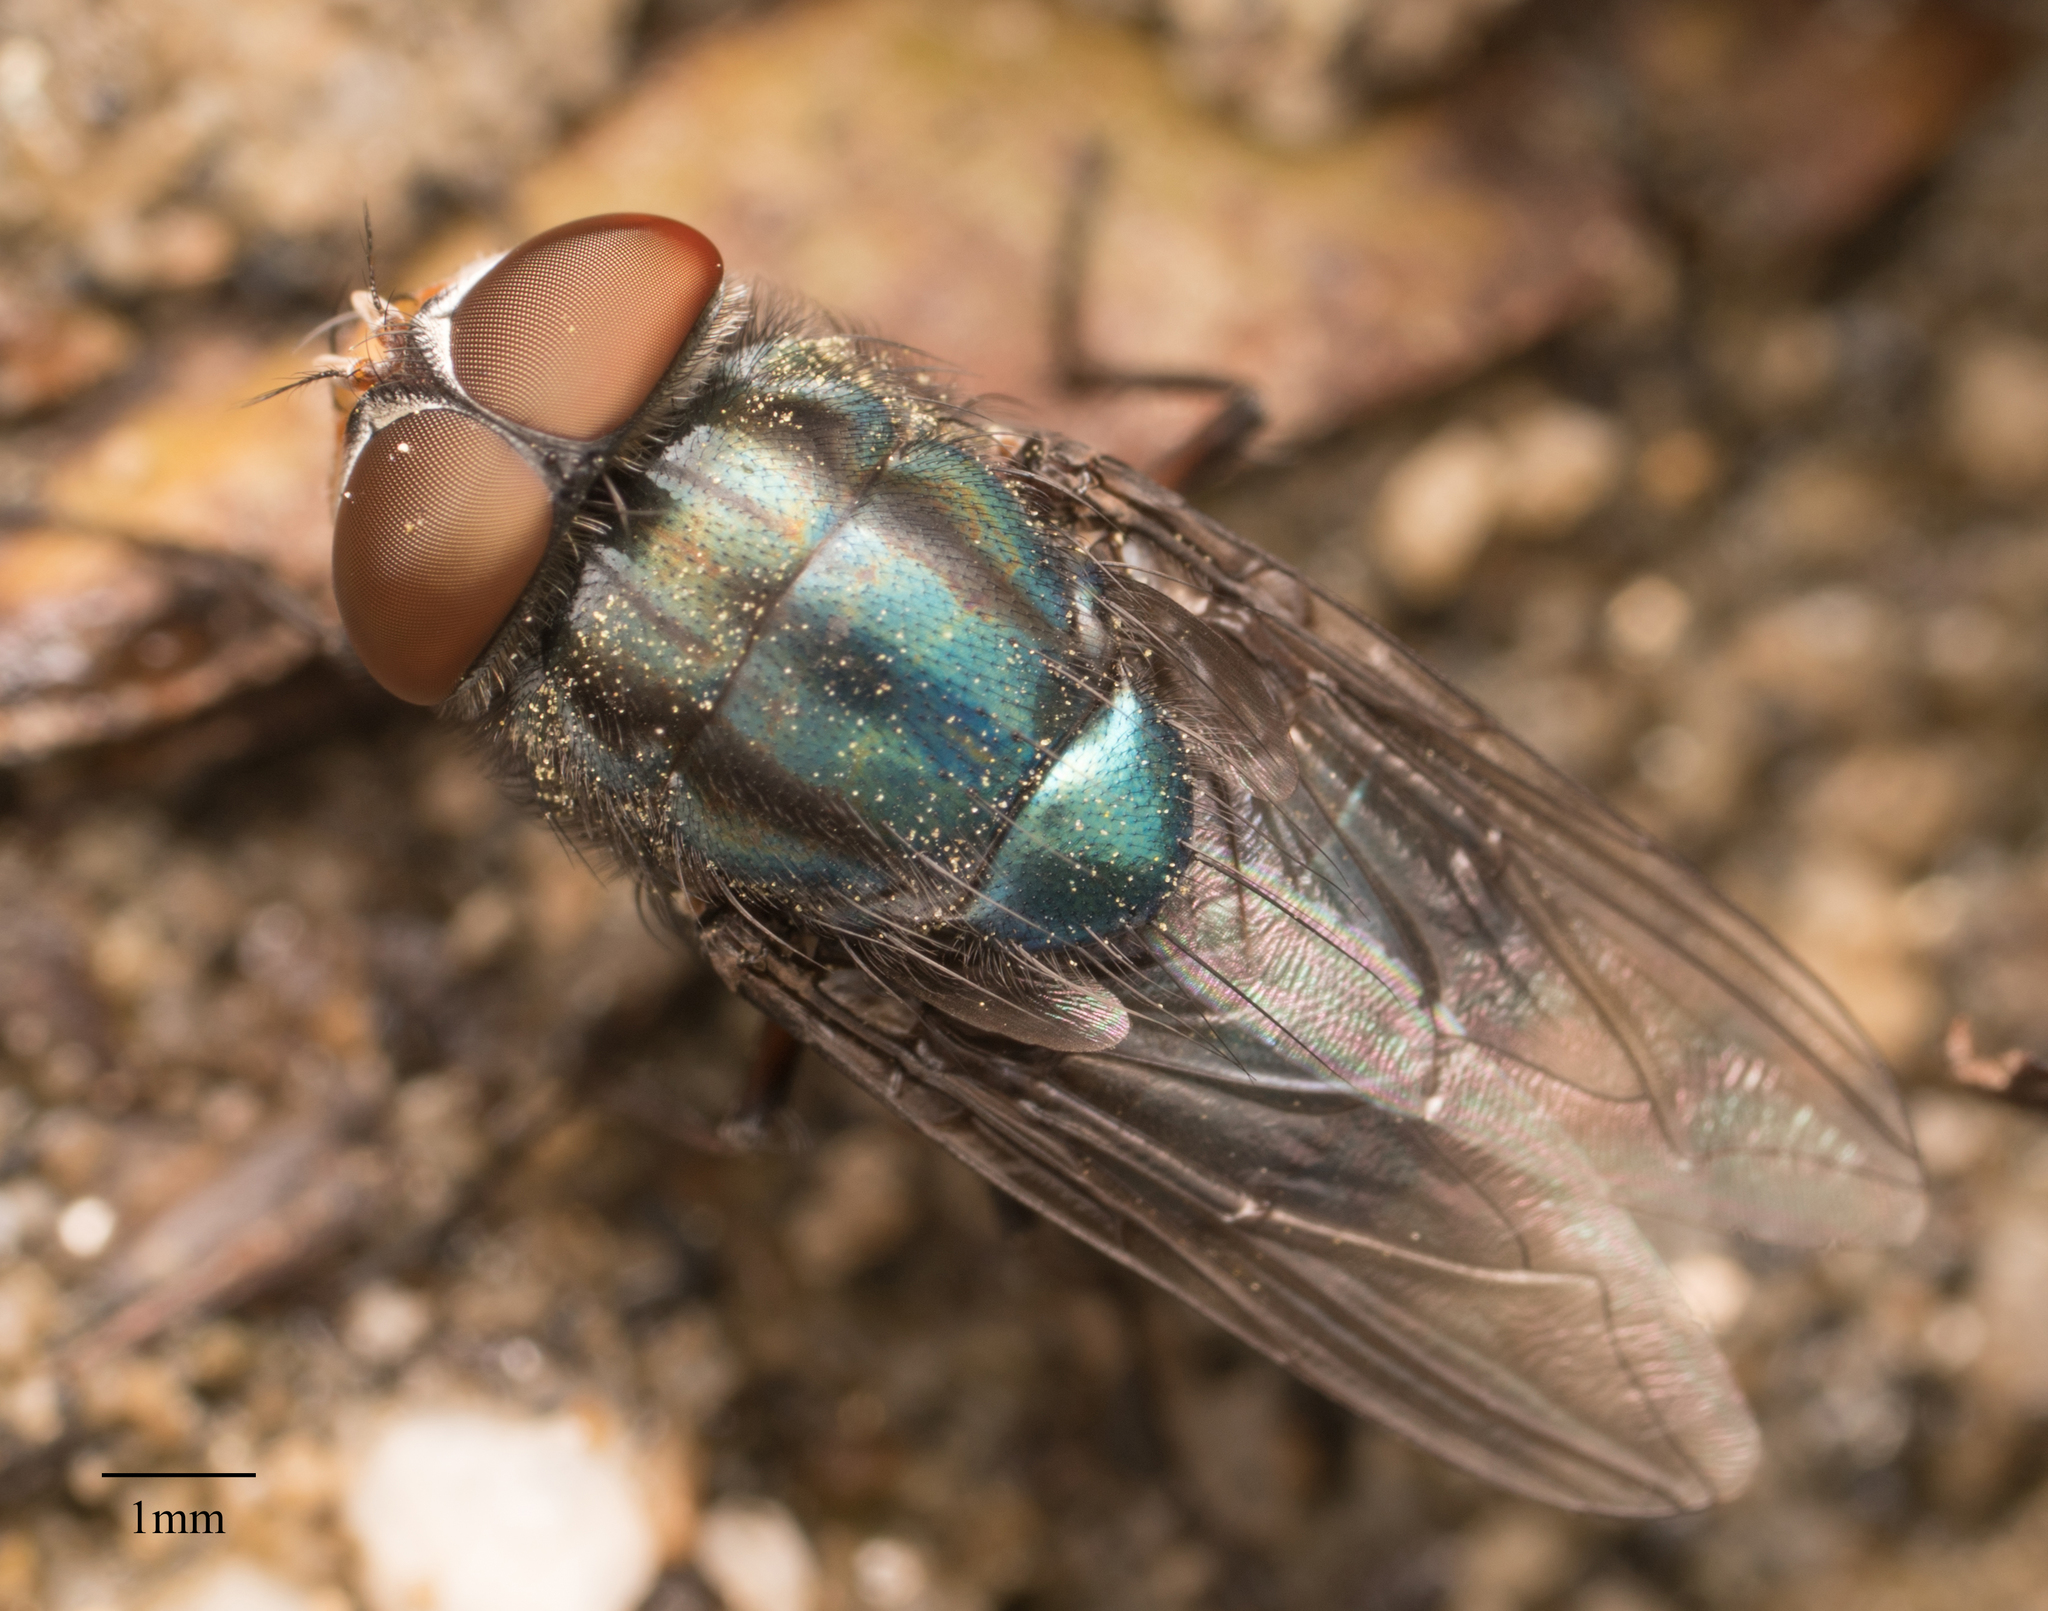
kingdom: Animalia
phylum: Arthropoda
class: Insecta
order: Diptera
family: Calliphoridae
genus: Compsomyiops
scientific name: Compsomyiops callipes
